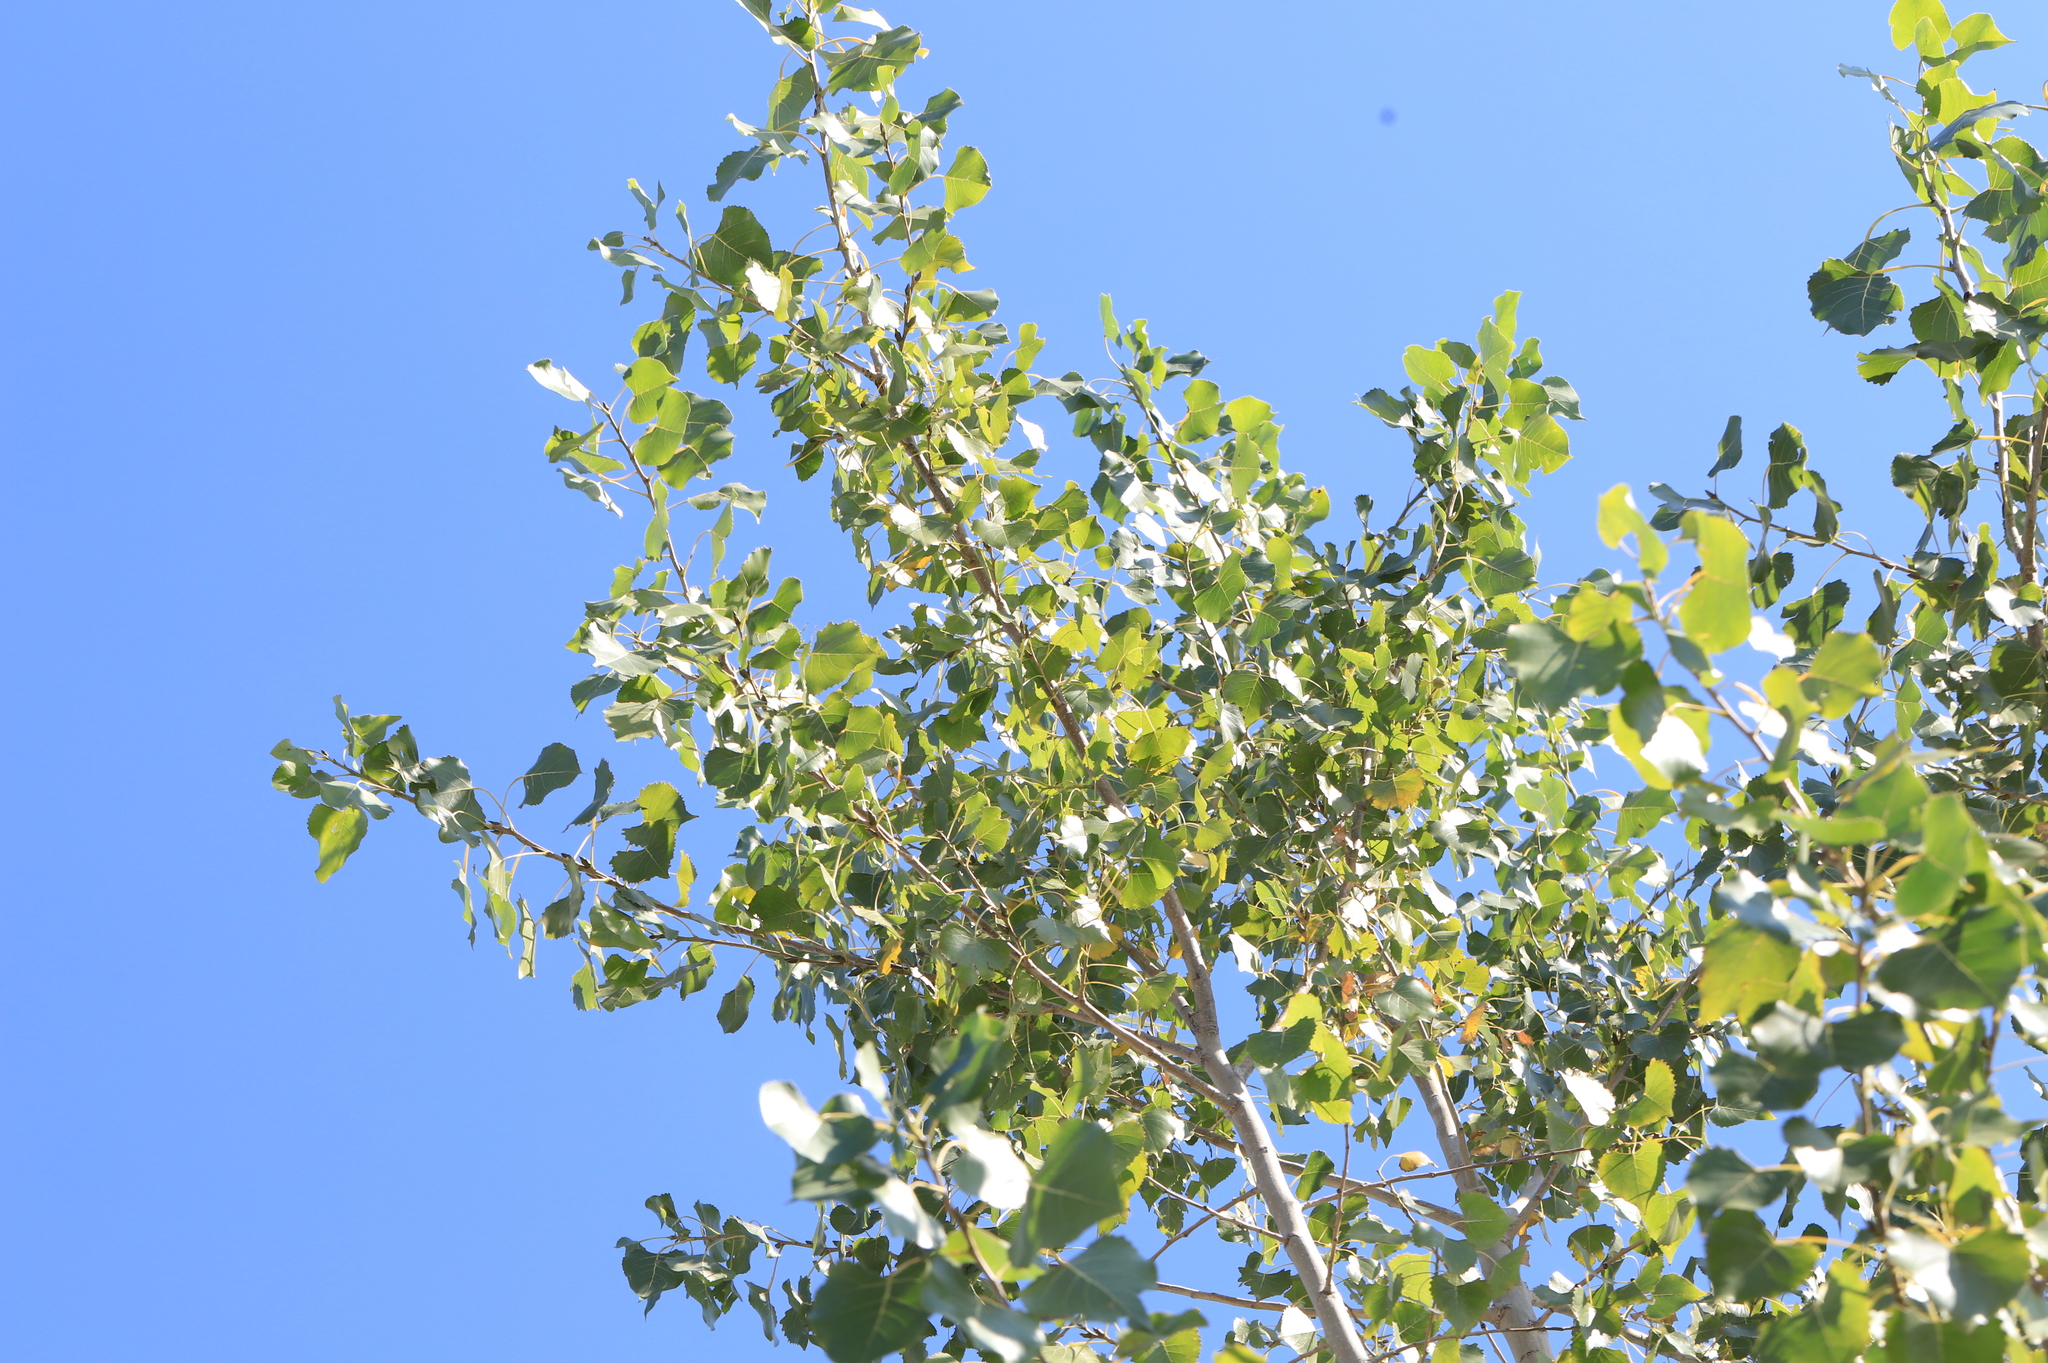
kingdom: Plantae
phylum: Tracheophyta
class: Magnoliopsida
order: Malpighiales
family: Salicaceae
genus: Populus
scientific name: Populus deltoides
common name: Eastern cottonwood
